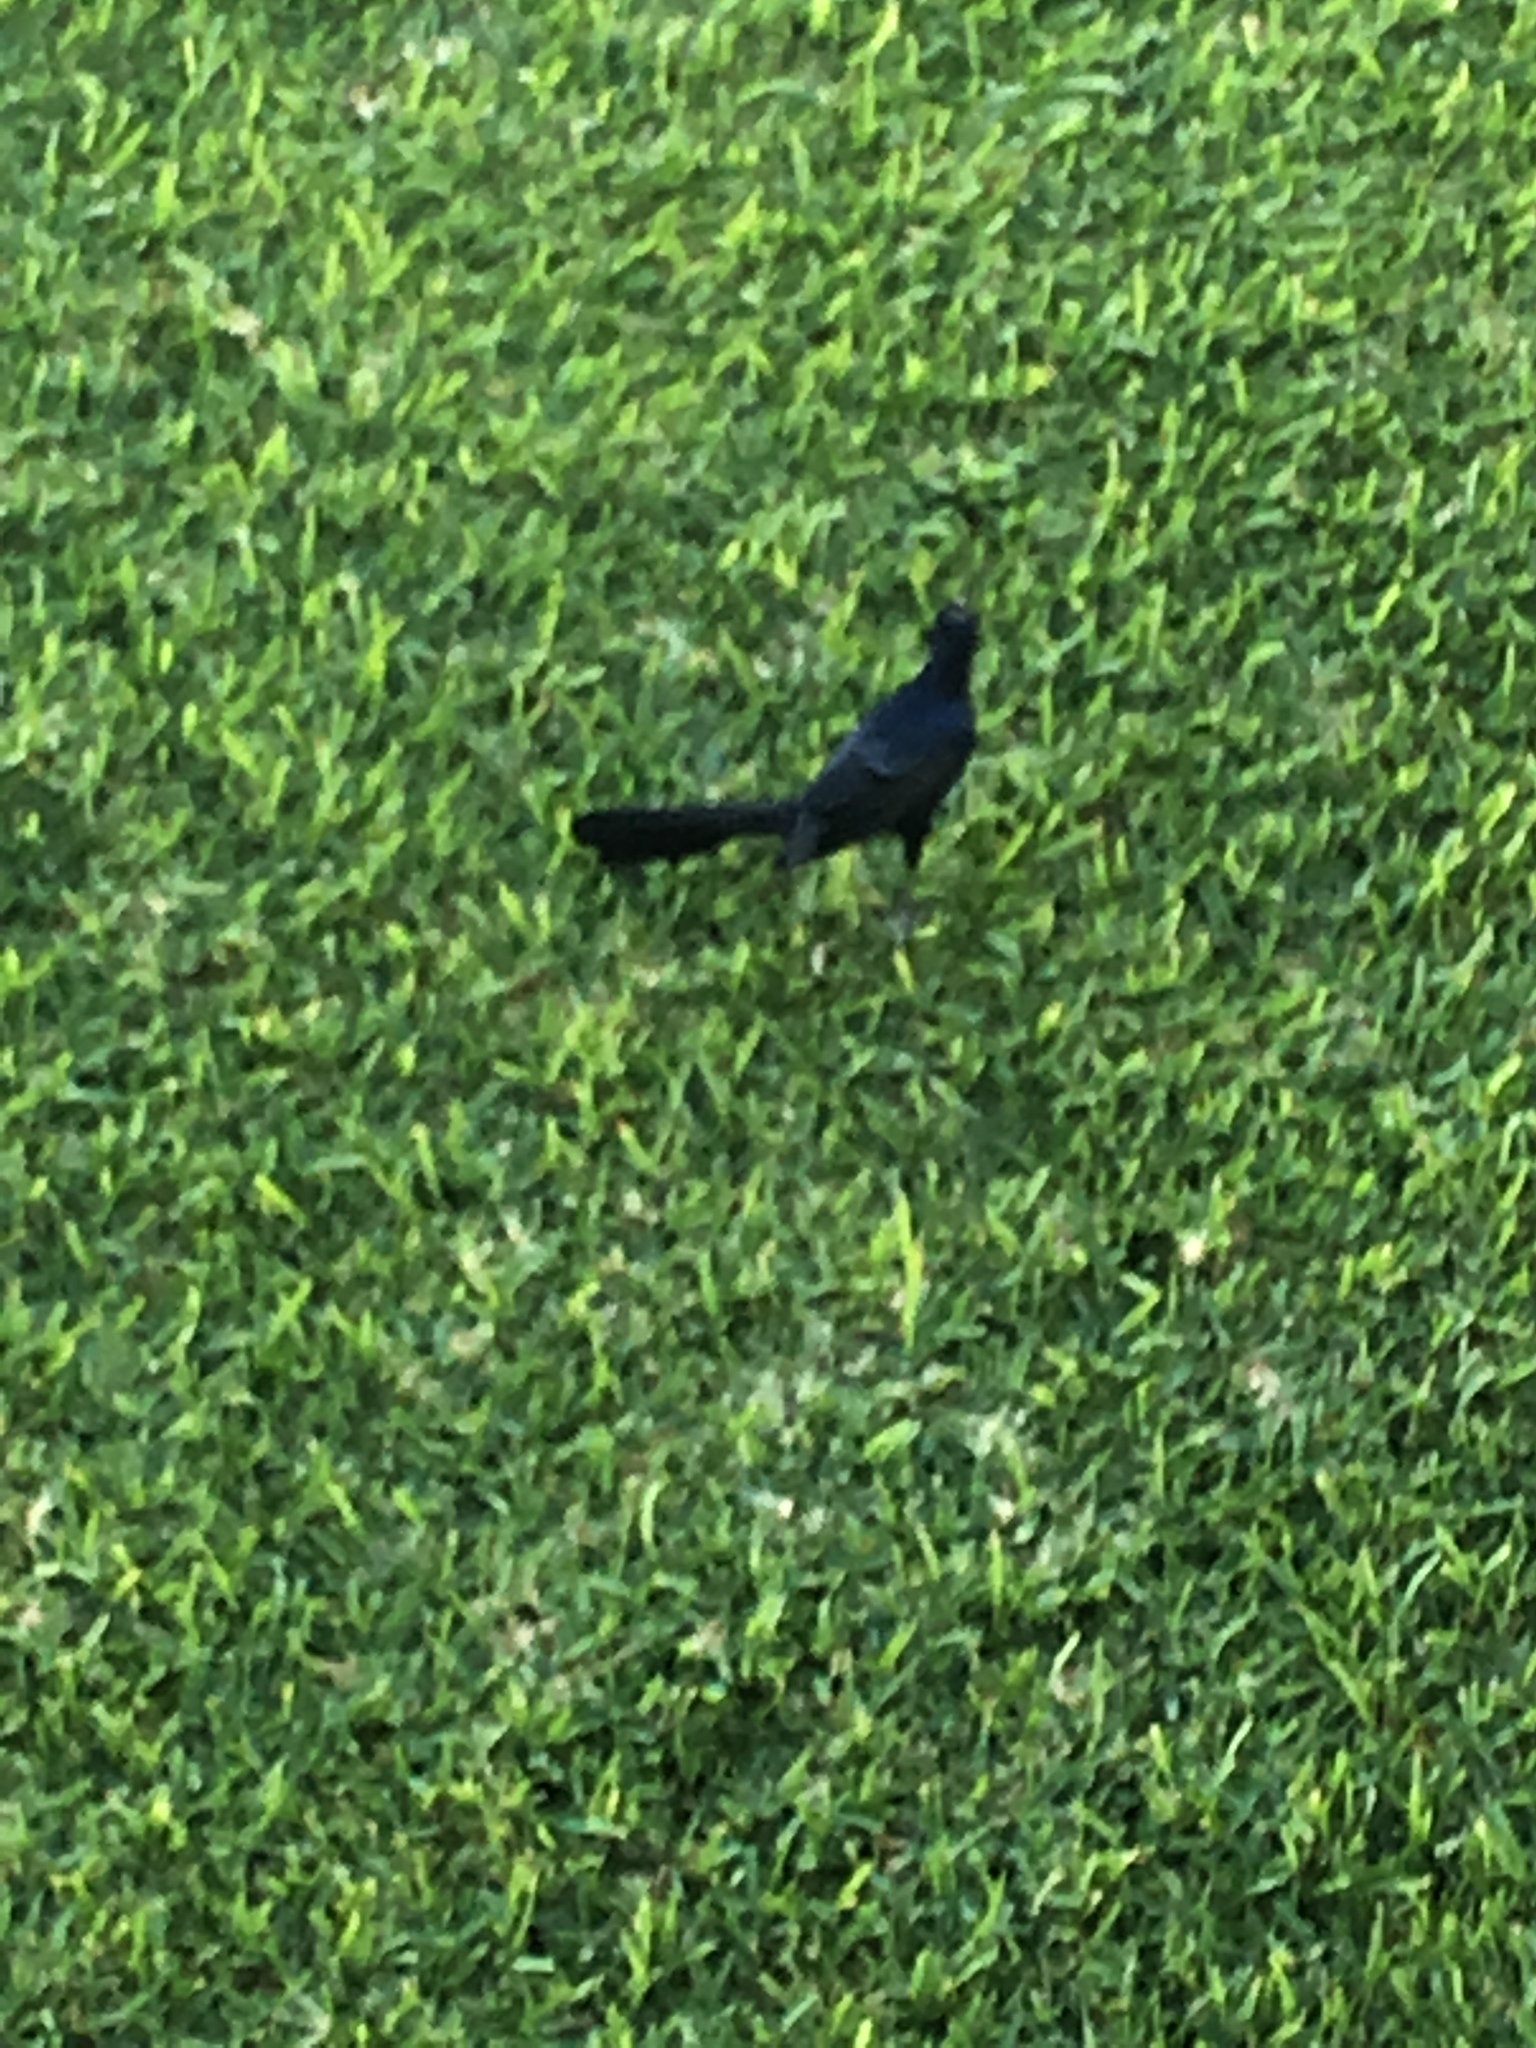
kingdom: Animalia
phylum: Chordata
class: Aves
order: Passeriformes
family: Icteridae
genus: Quiscalus
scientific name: Quiscalus mexicanus
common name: Great-tailed grackle
